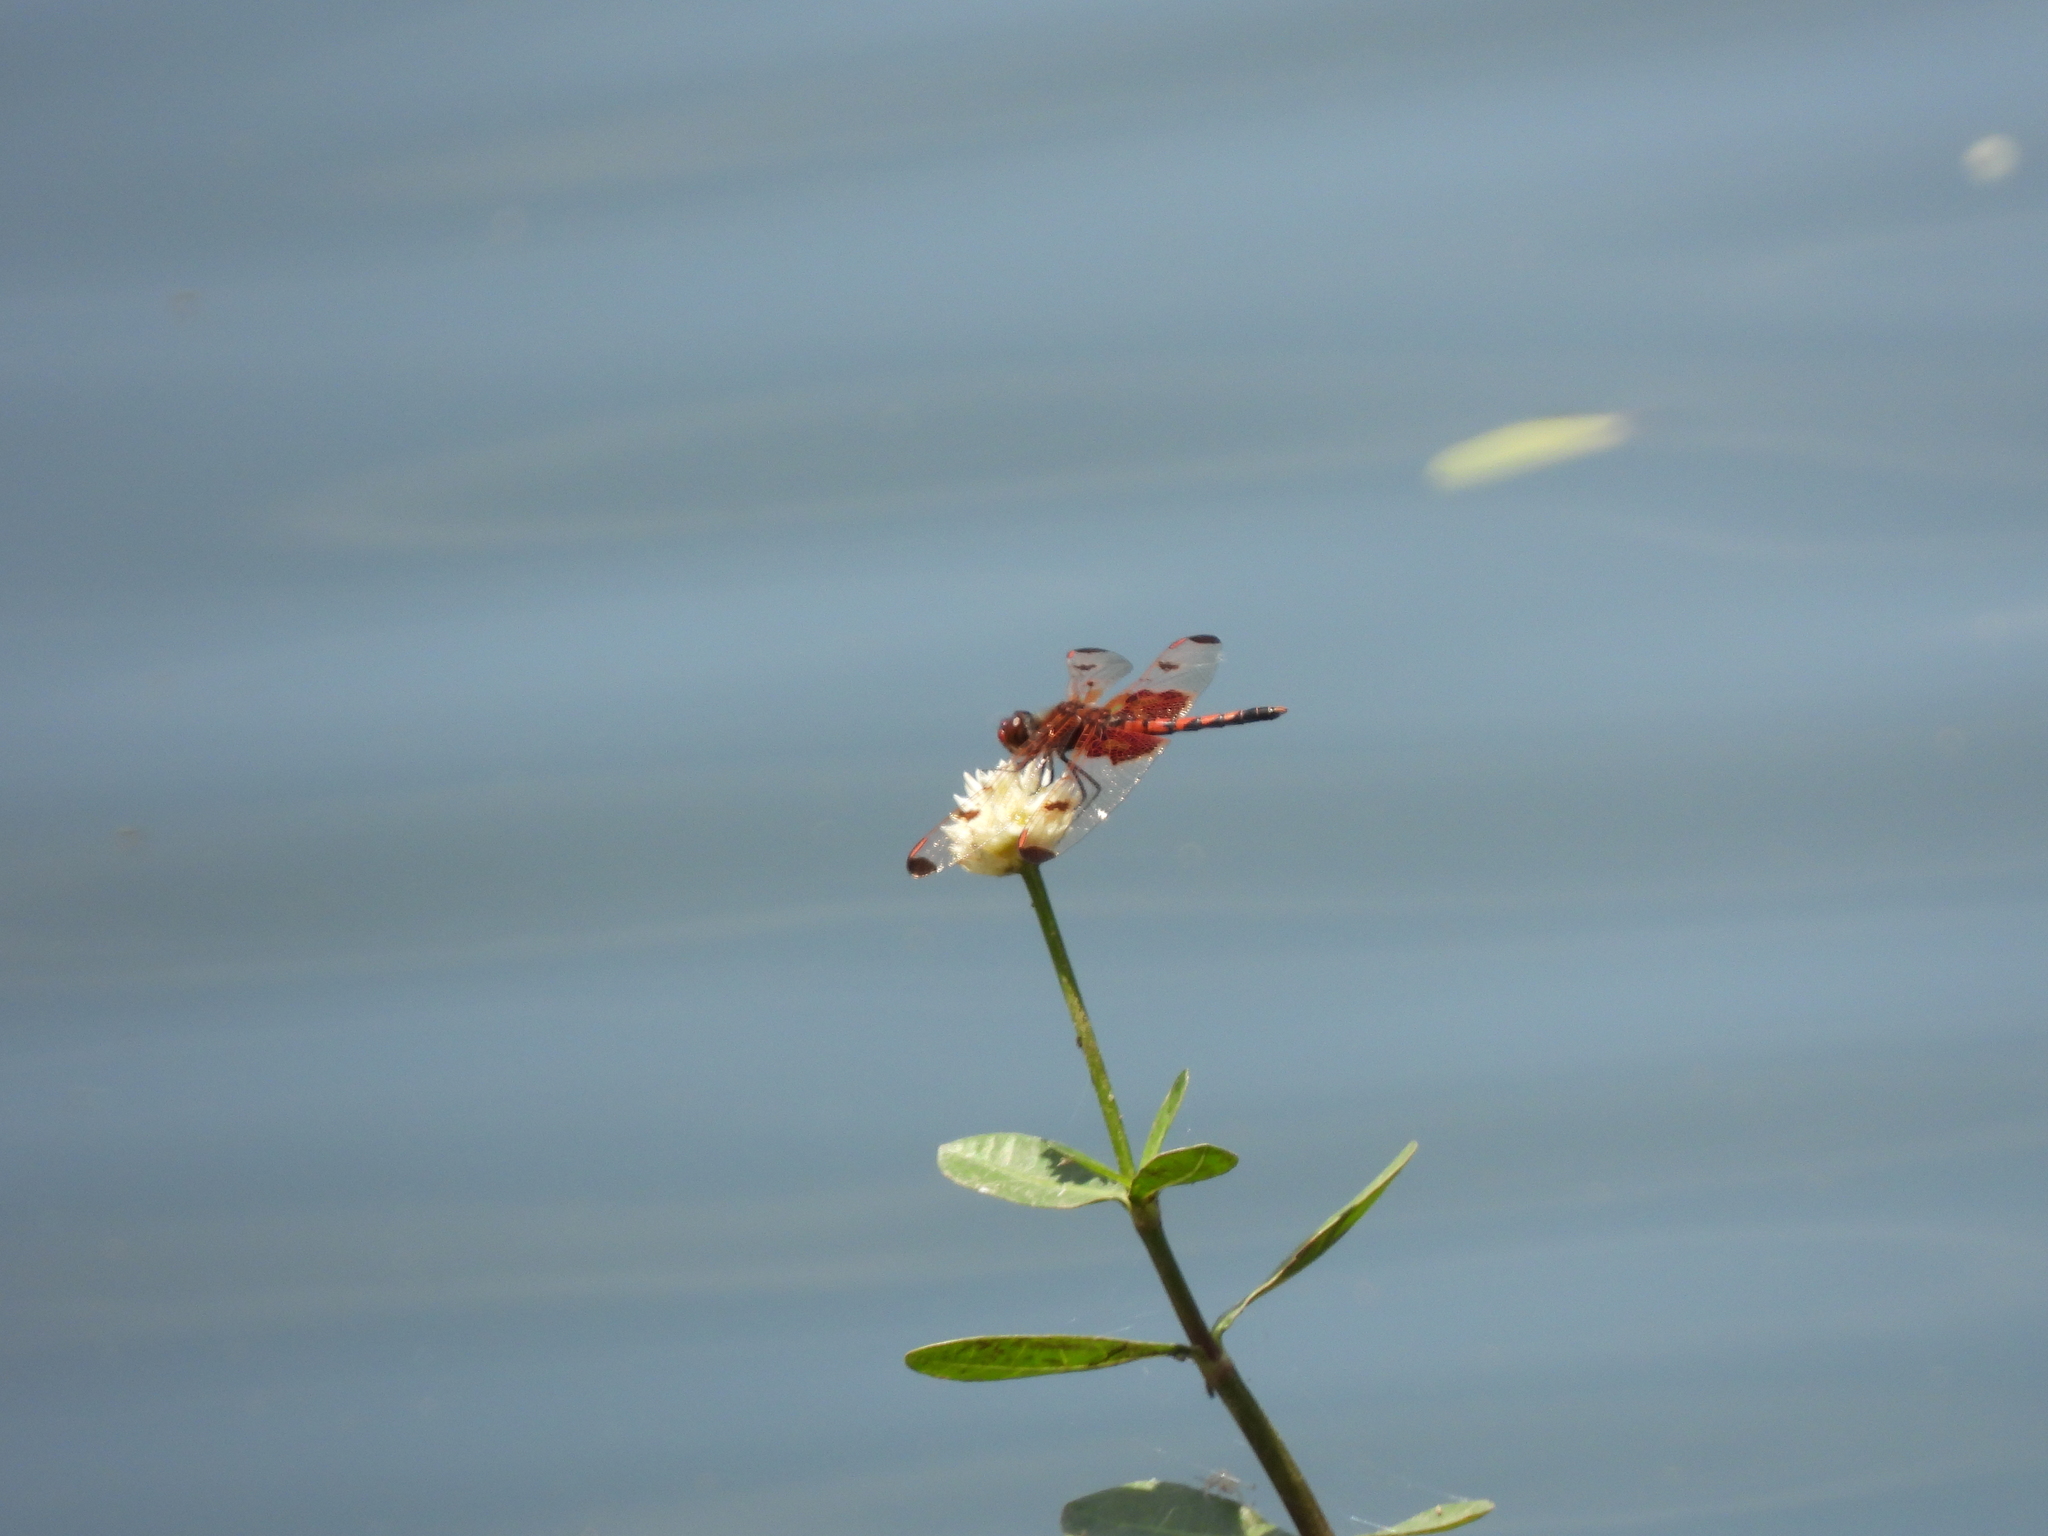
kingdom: Animalia
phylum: Arthropoda
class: Insecta
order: Odonata
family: Libellulidae
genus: Celithemis
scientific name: Celithemis elisa
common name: Calico pennant
